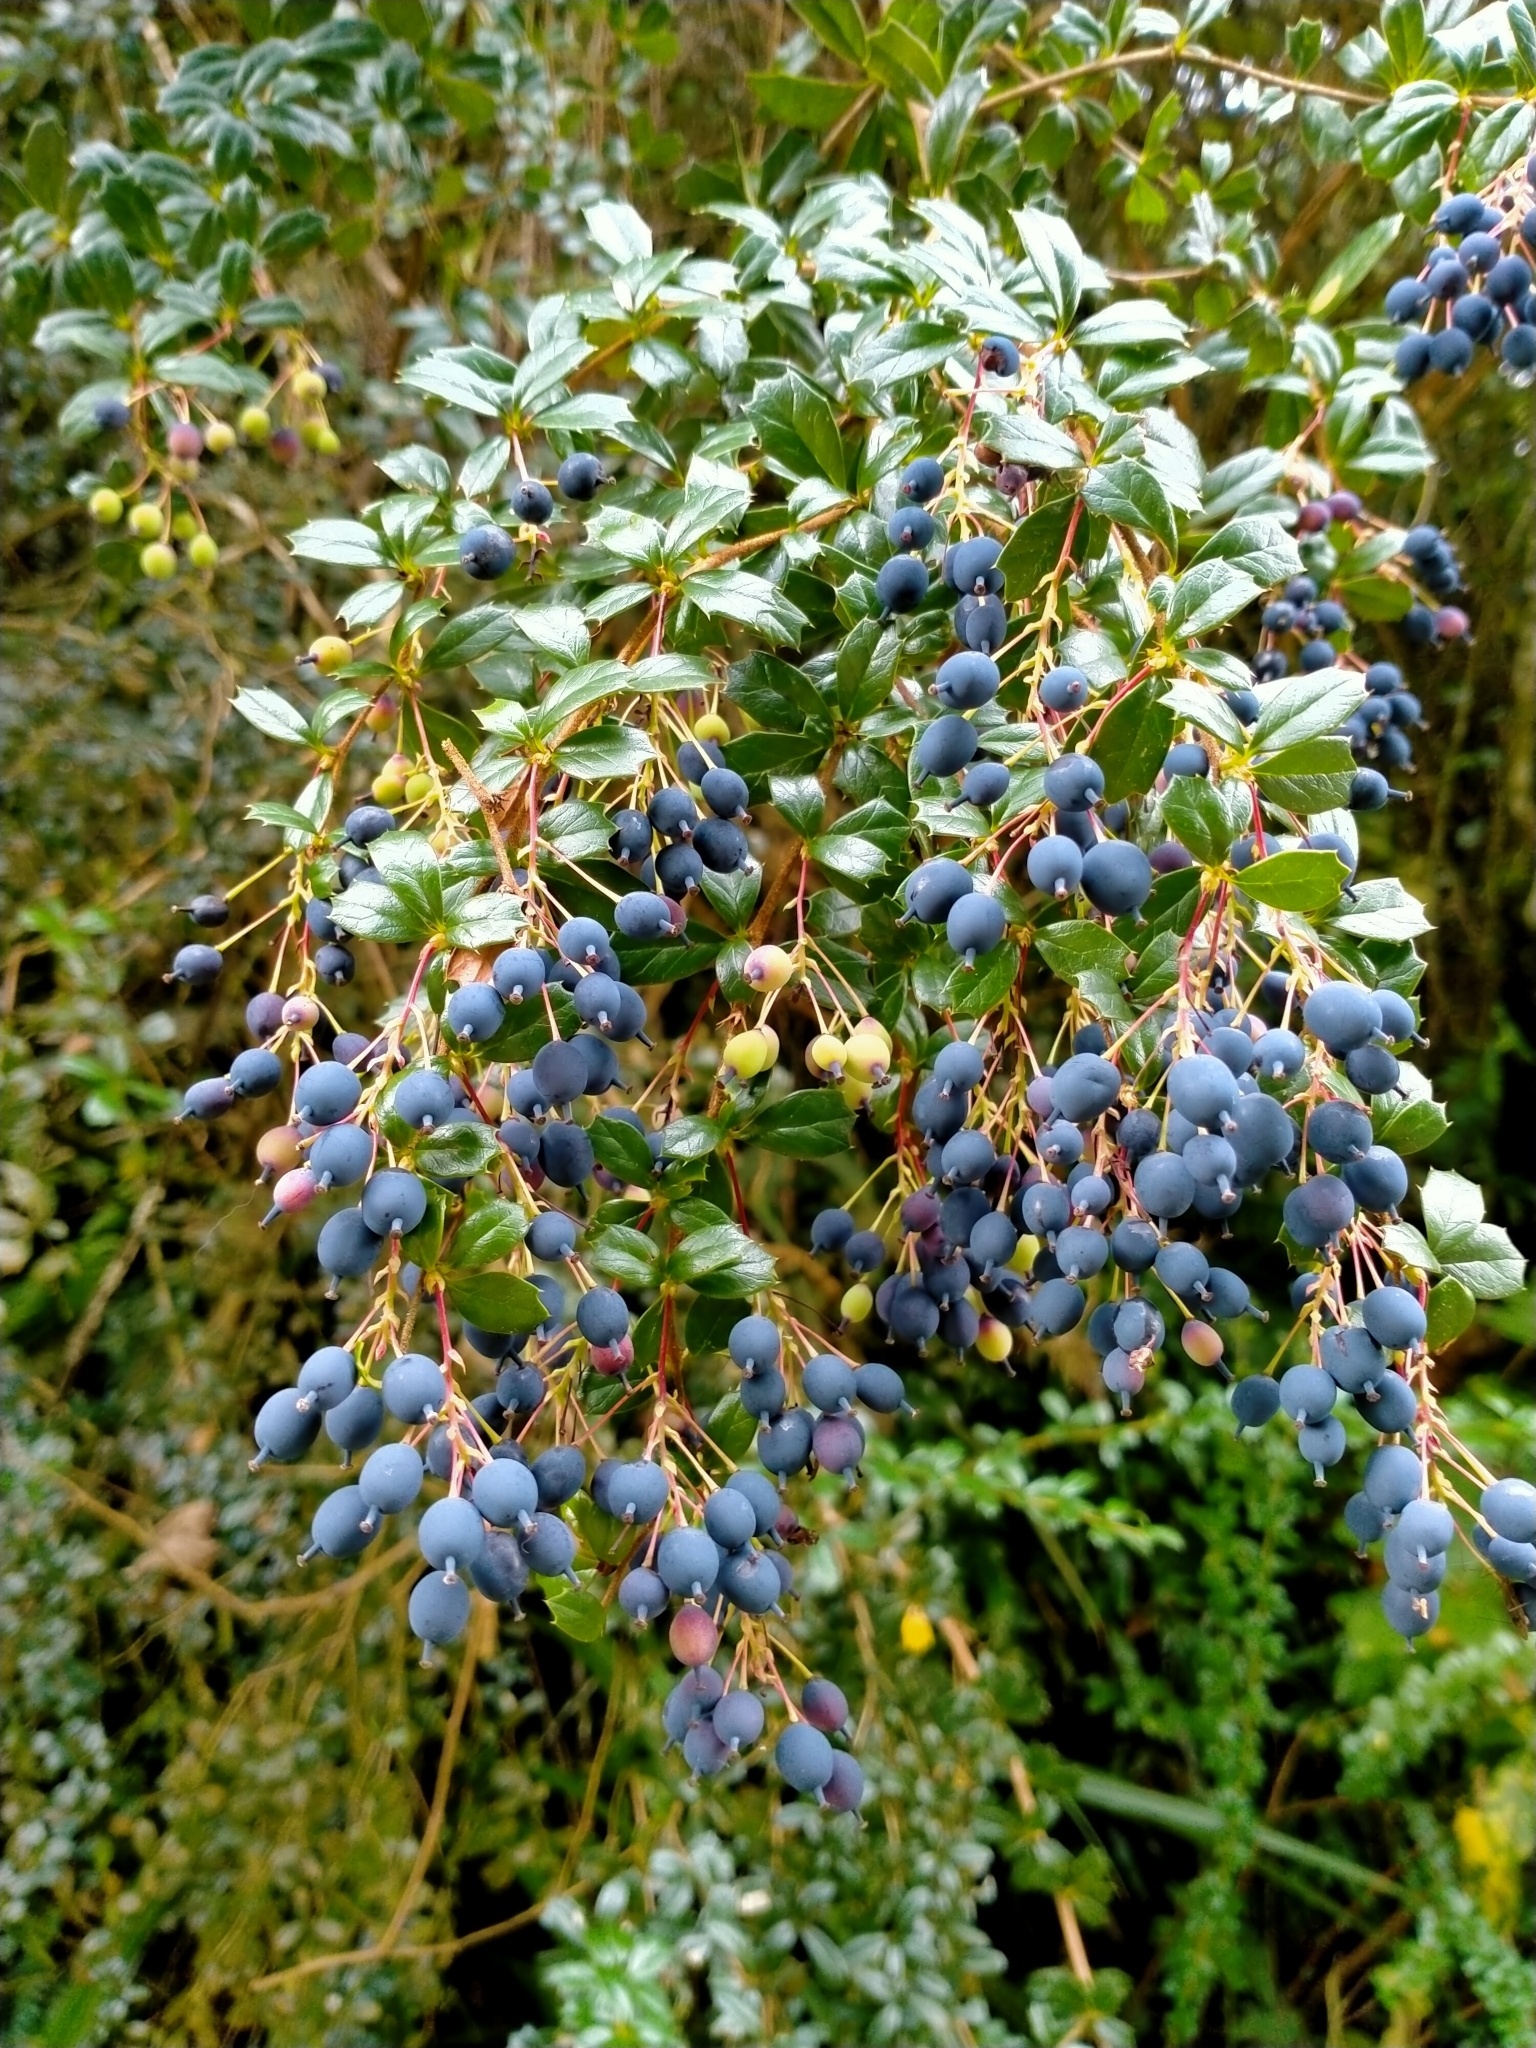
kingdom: Plantae
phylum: Tracheophyta
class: Magnoliopsida
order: Ranunculales
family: Berberidaceae
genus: Berberis
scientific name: Berberis darwinii
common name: Darwin's barberry
